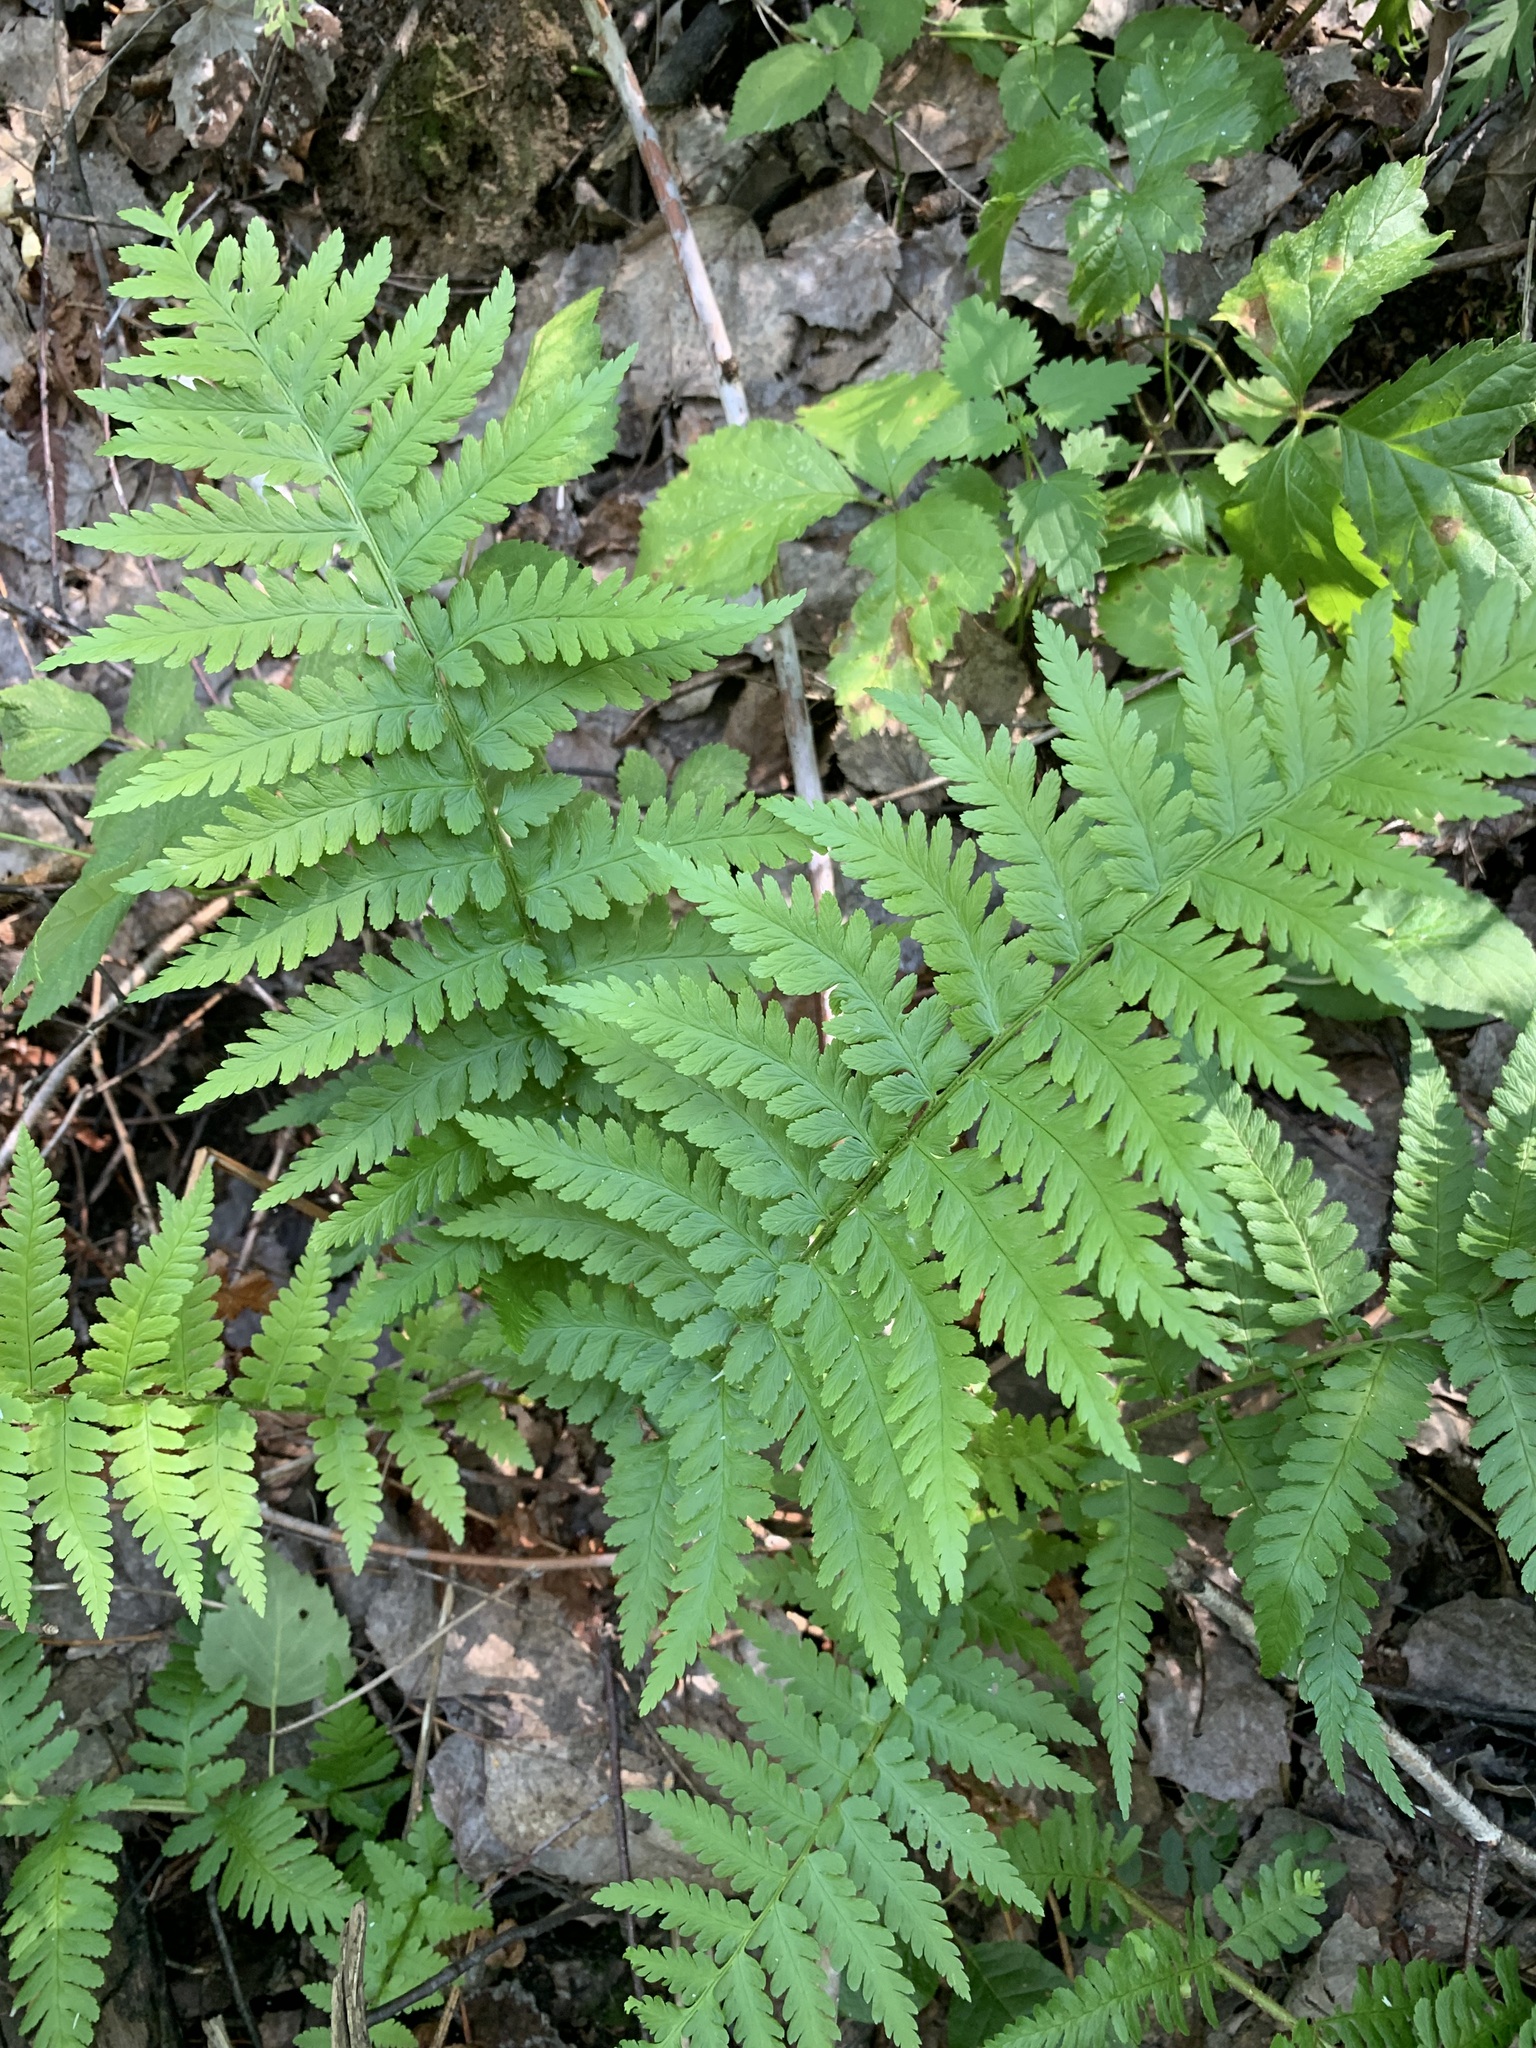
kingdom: Plantae
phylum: Tracheophyta
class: Polypodiopsida
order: Polypodiales
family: Dryopteridaceae
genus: Dryopteris
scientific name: Dryopteris filix-mas
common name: Male fern
